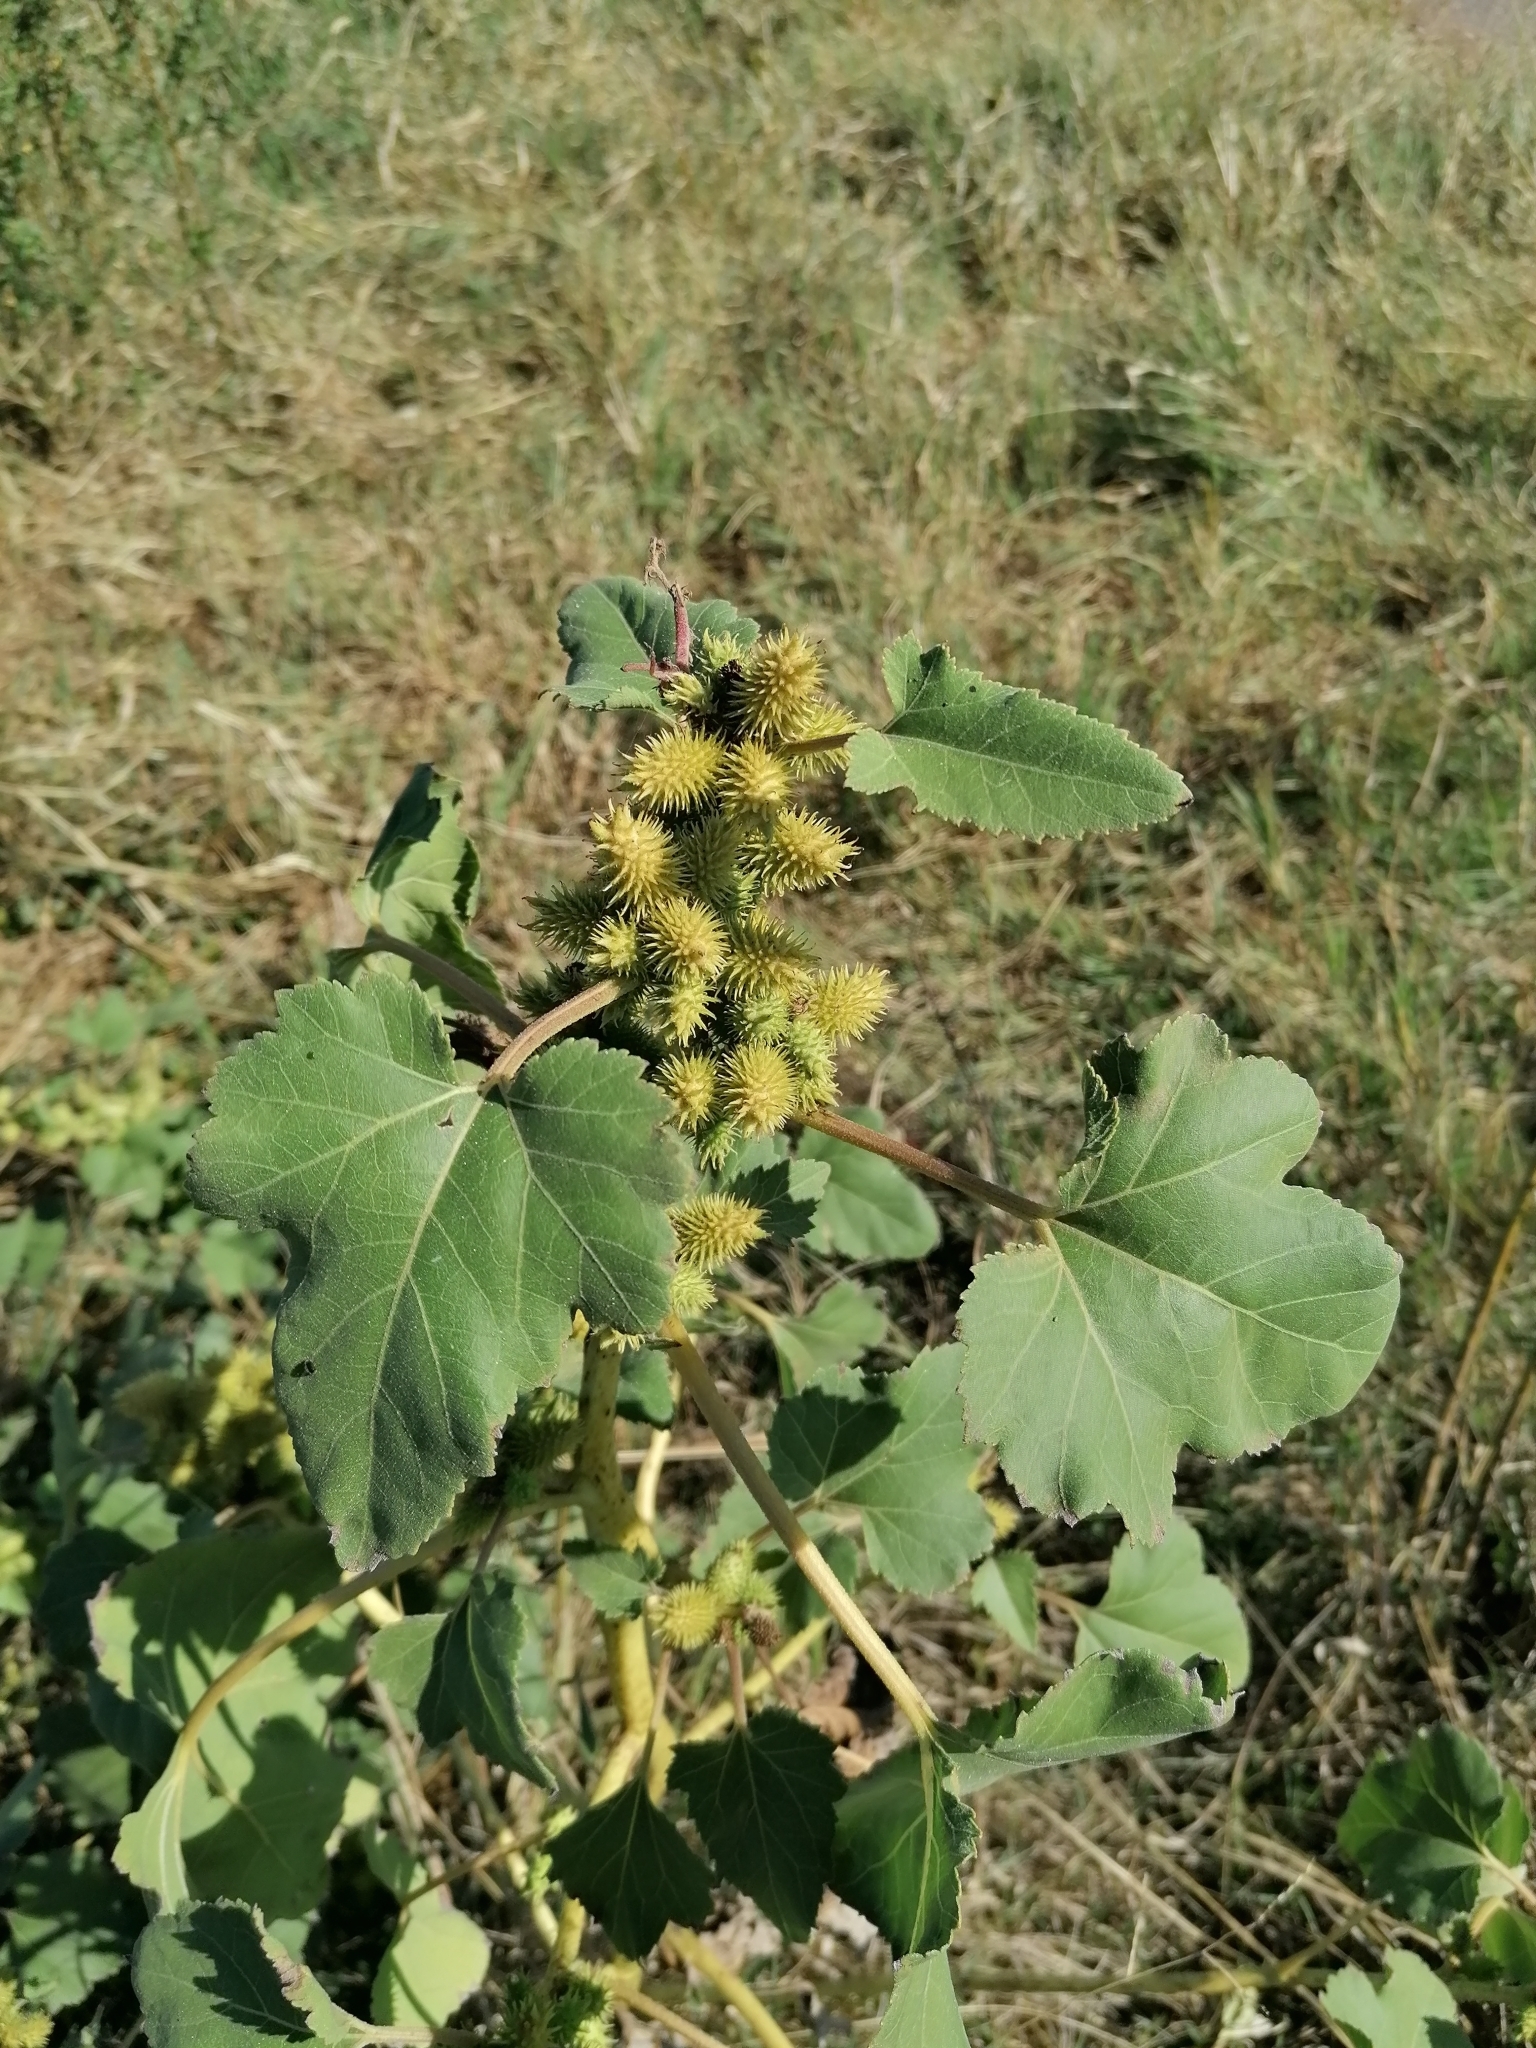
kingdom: Plantae
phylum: Tracheophyta
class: Magnoliopsida
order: Asterales
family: Asteraceae
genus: Xanthium
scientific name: Xanthium strumarium
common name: Rough cocklebur
